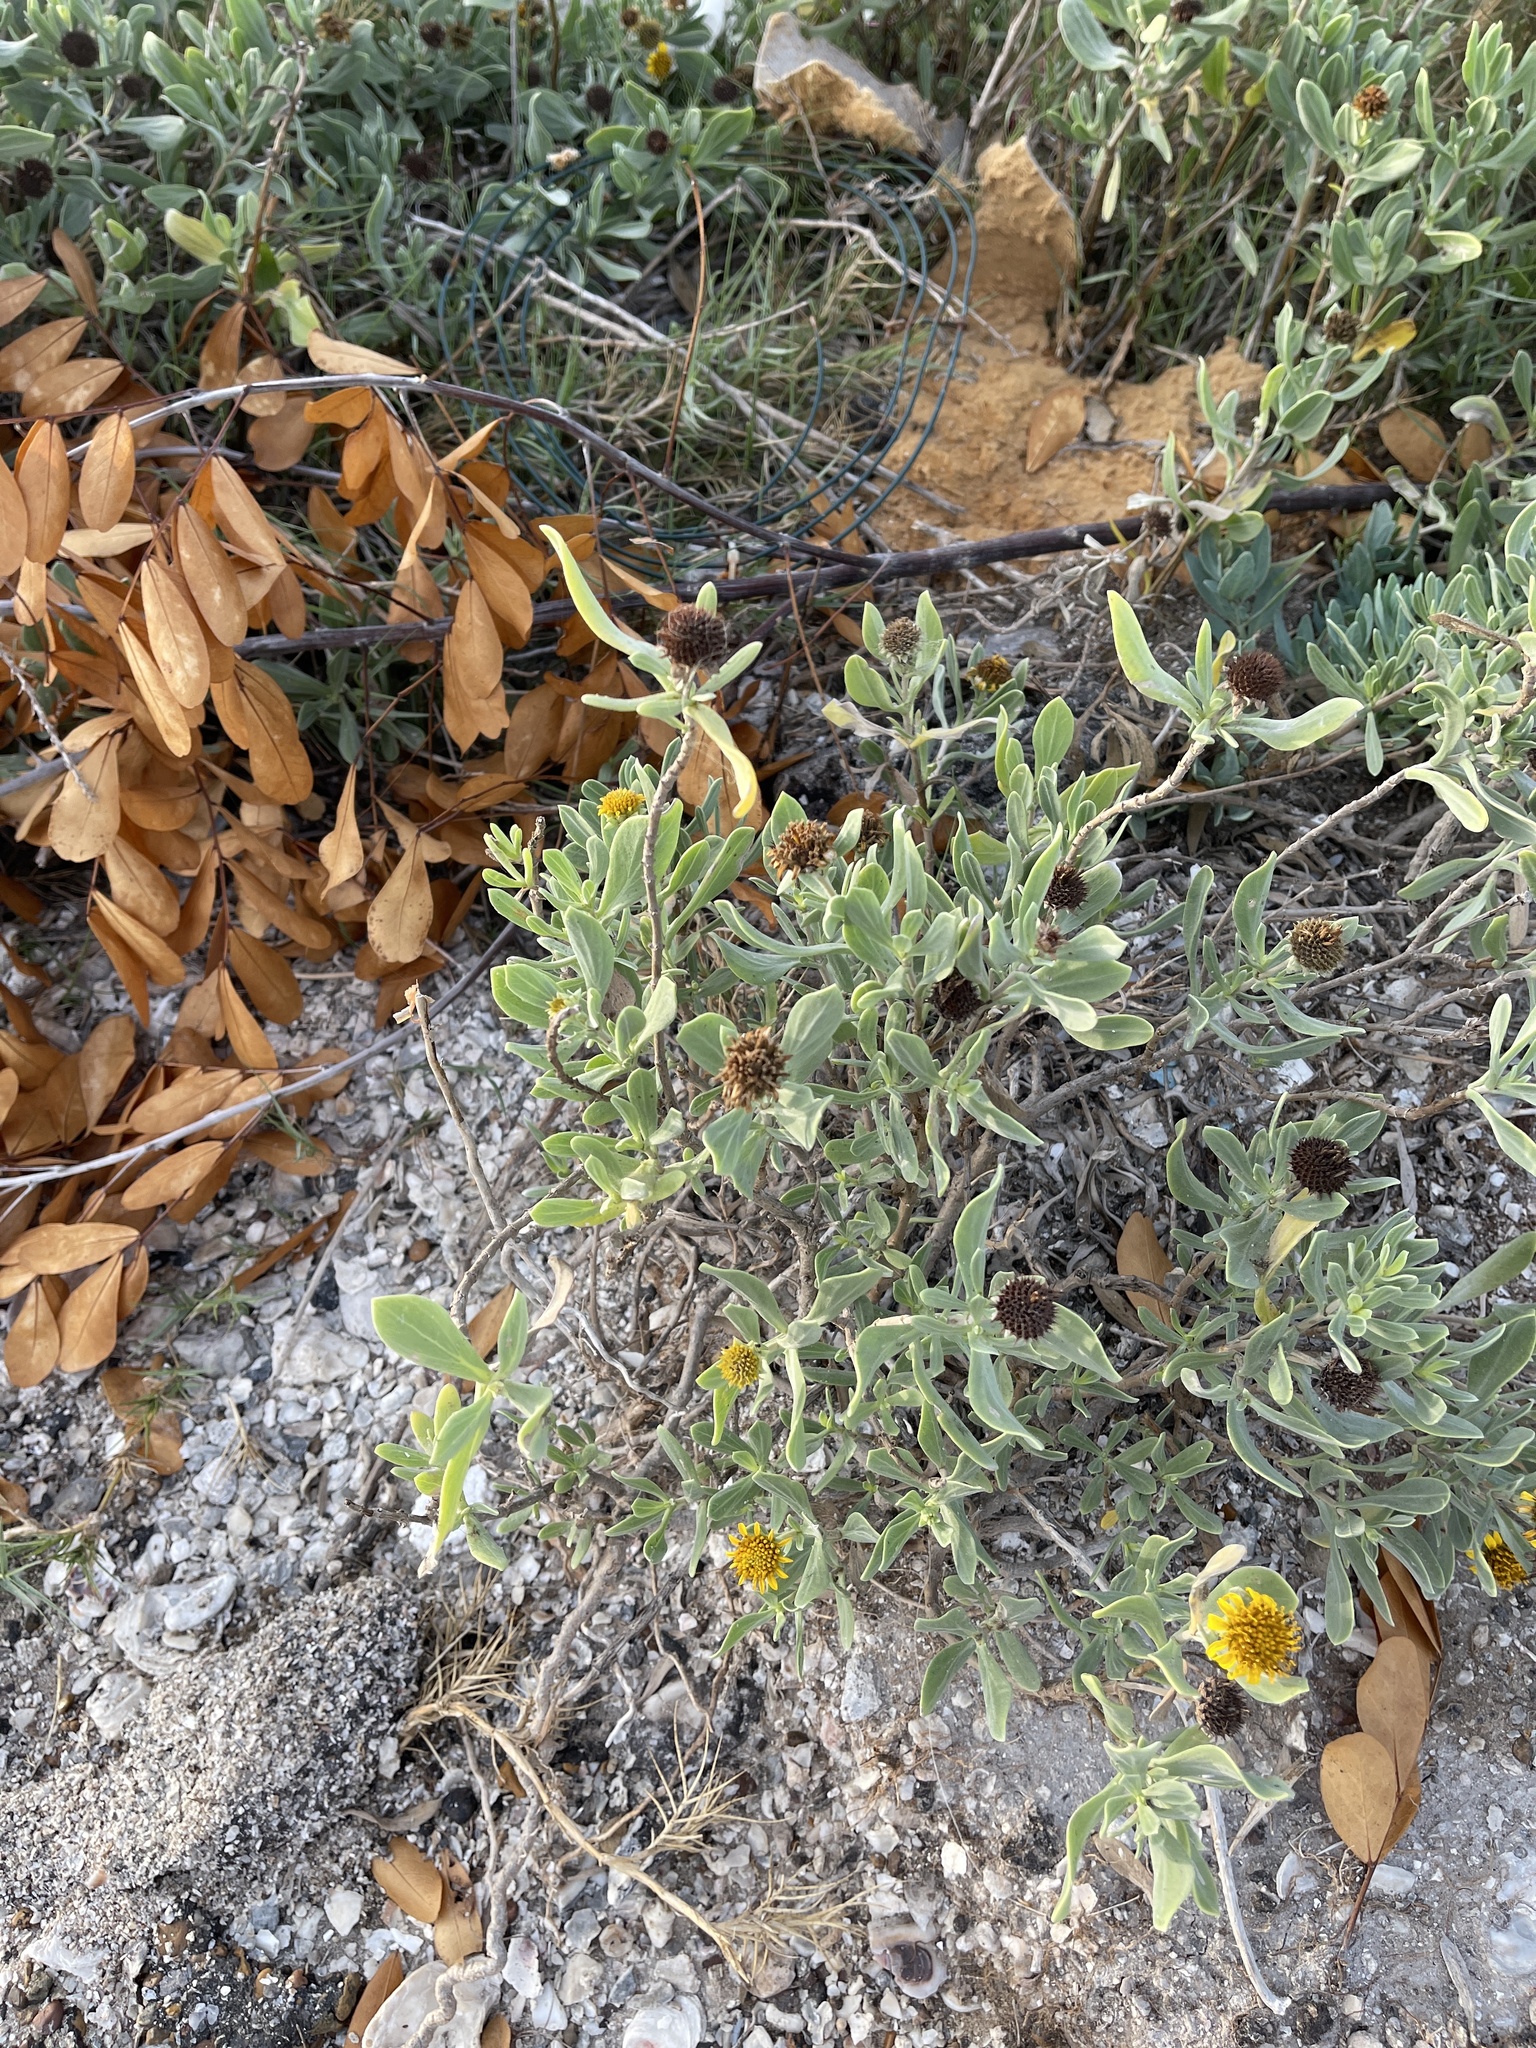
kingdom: Plantae
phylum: Tracheophyta
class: Magnoliopsida
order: Asterales
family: Asteraceae
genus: Borrichia
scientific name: Borrichia frutescens
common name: Sea oxeye
